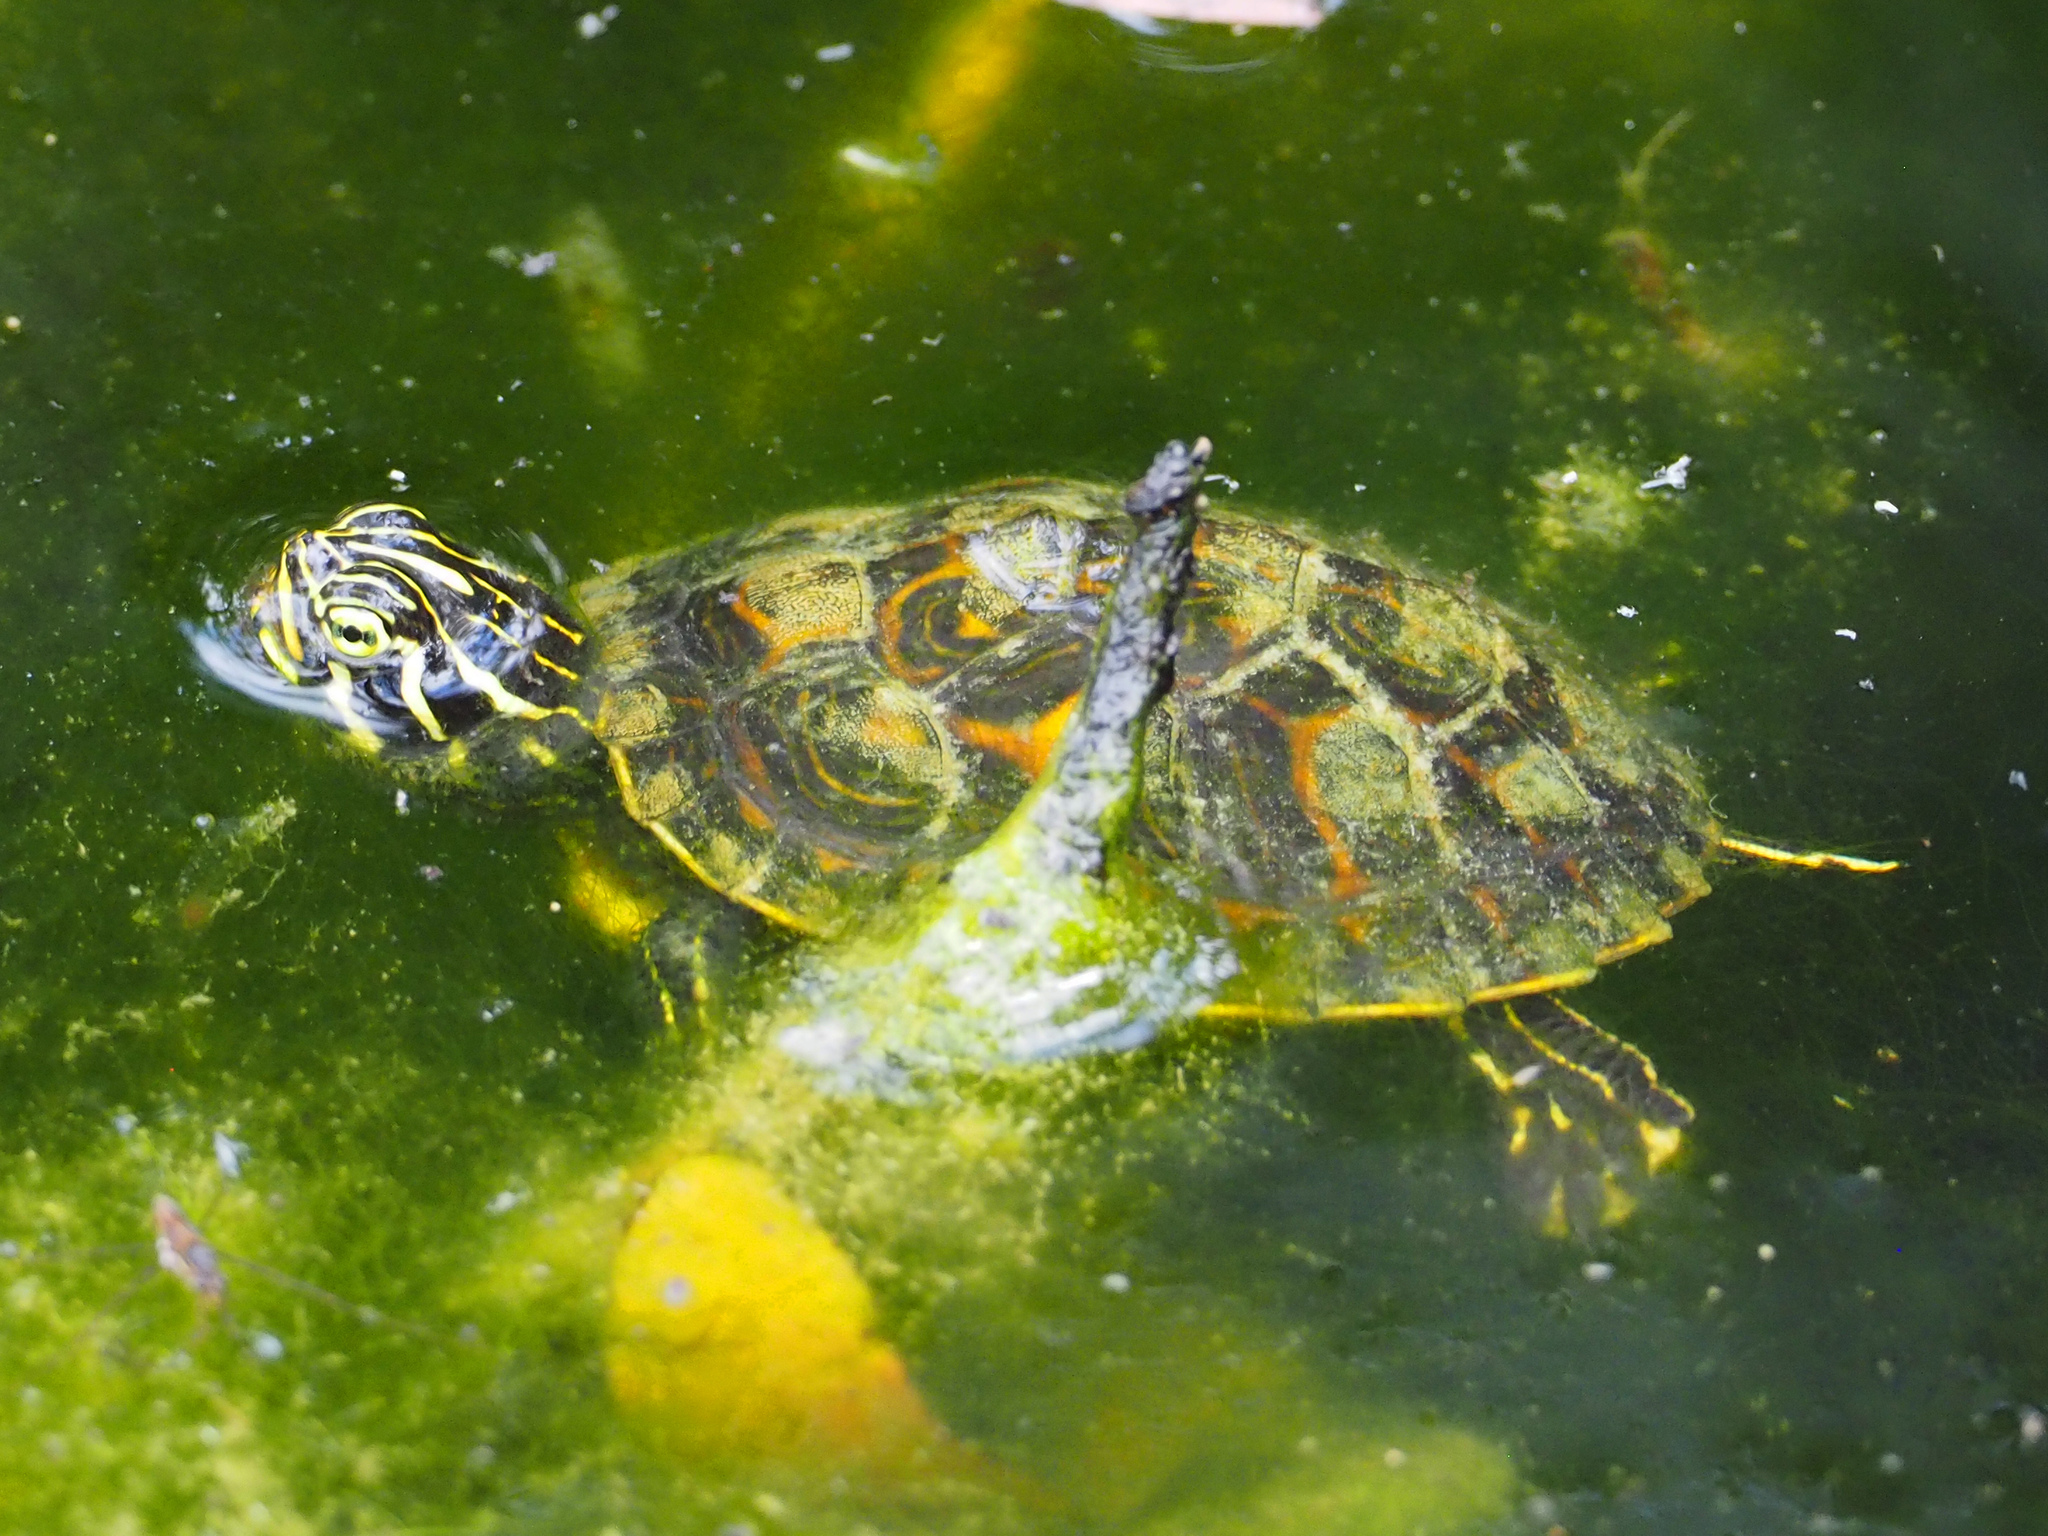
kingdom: Animalia
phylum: Chordata
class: Testudines
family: Emydidae
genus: Pseudemys
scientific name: Pseudemys nelsoni
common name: Florida red-bellied turtle
